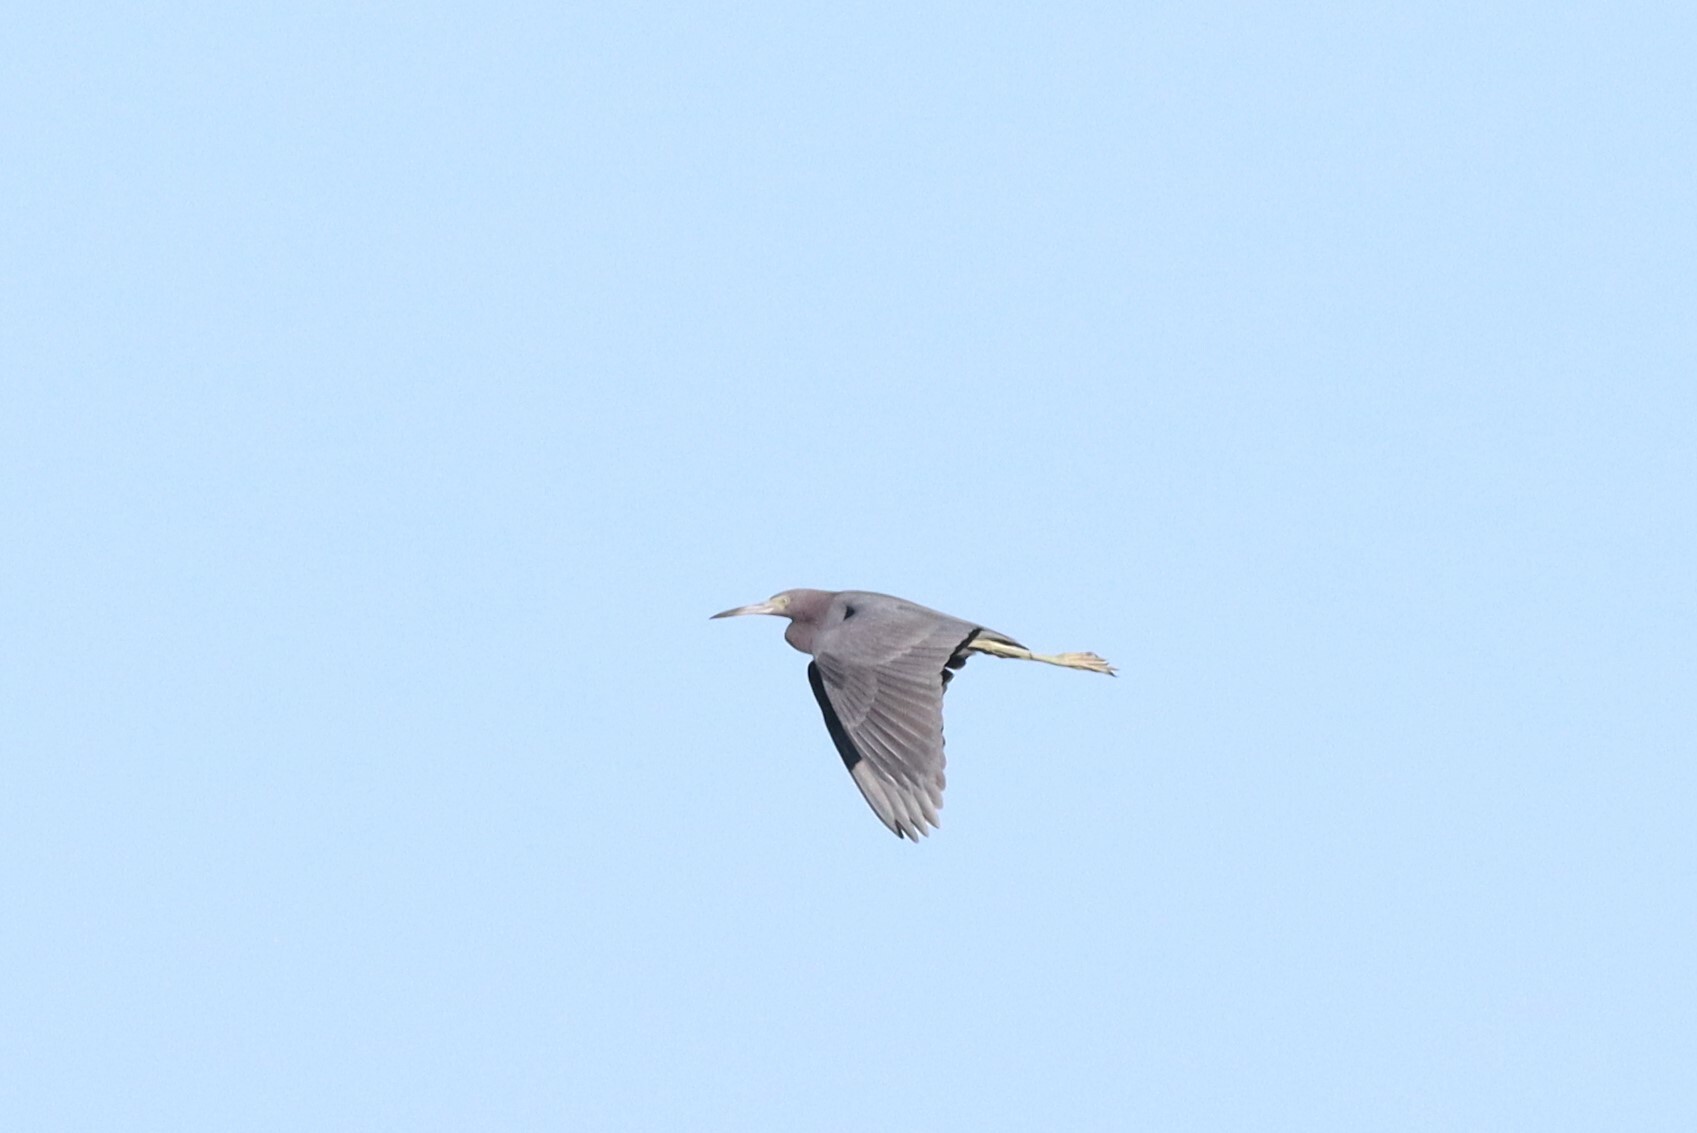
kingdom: Animalia
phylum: Chordata
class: Aves
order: Pelecaniformes
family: Ardeidae
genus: Egretta
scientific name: Egretta caerulea
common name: Little blue heron
